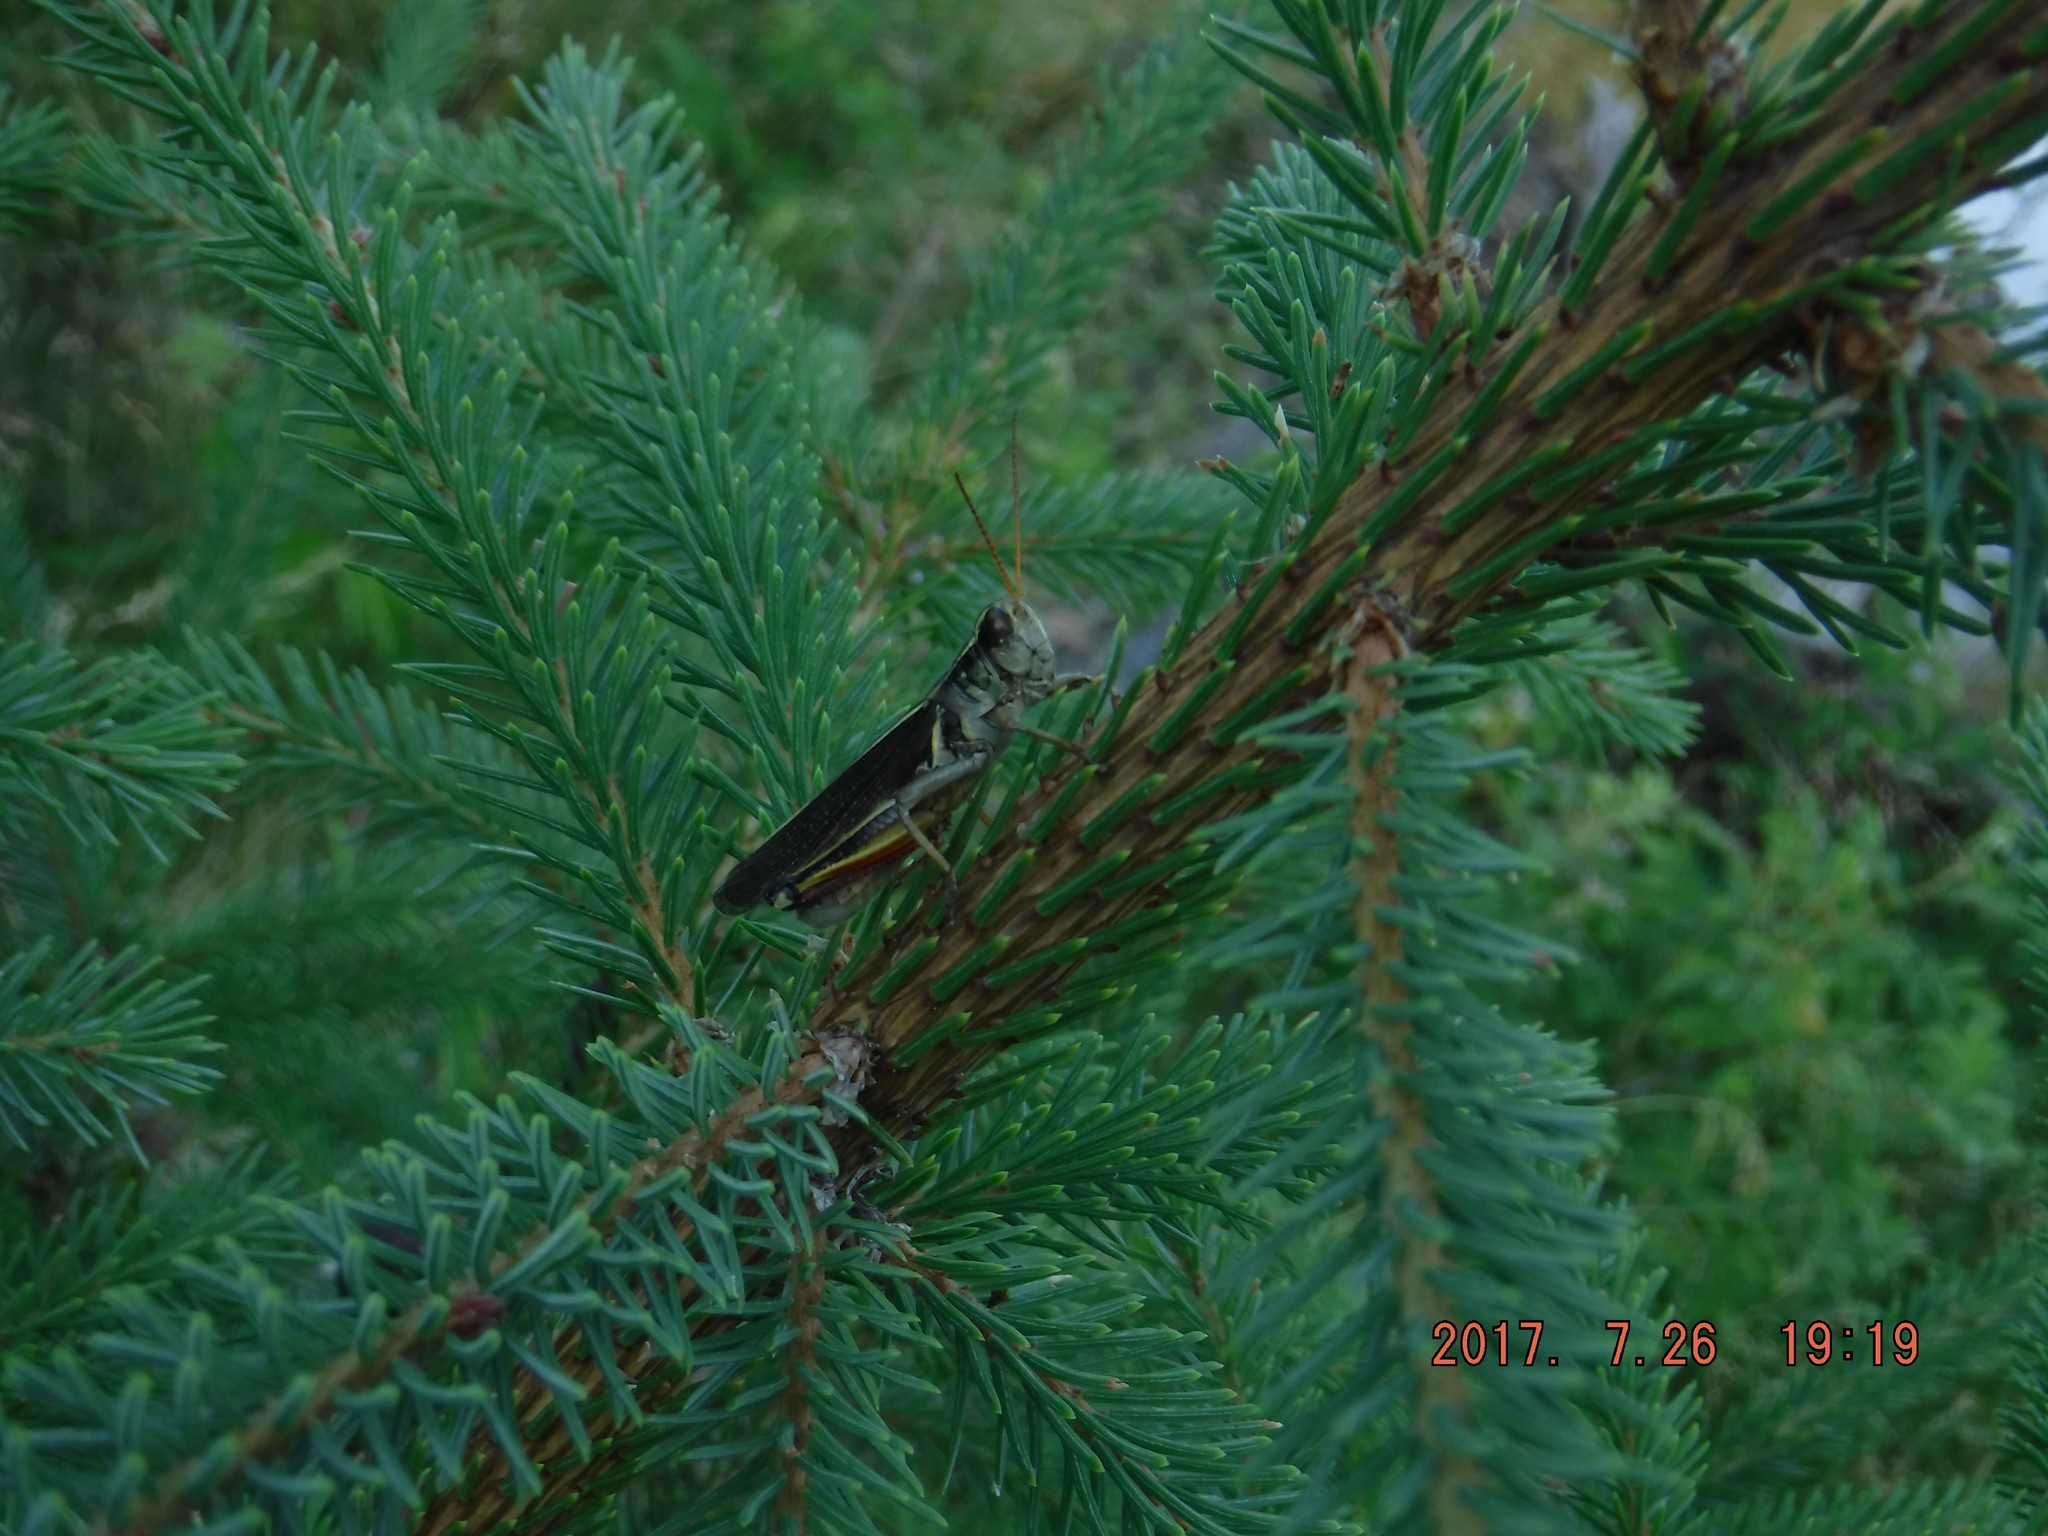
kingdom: Animalia
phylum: Arthropoda
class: Insecta
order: Orthoptera
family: Acrididae
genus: Melanoplus
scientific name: Melanoplus bivittatus
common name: Two-striped grasshopper
